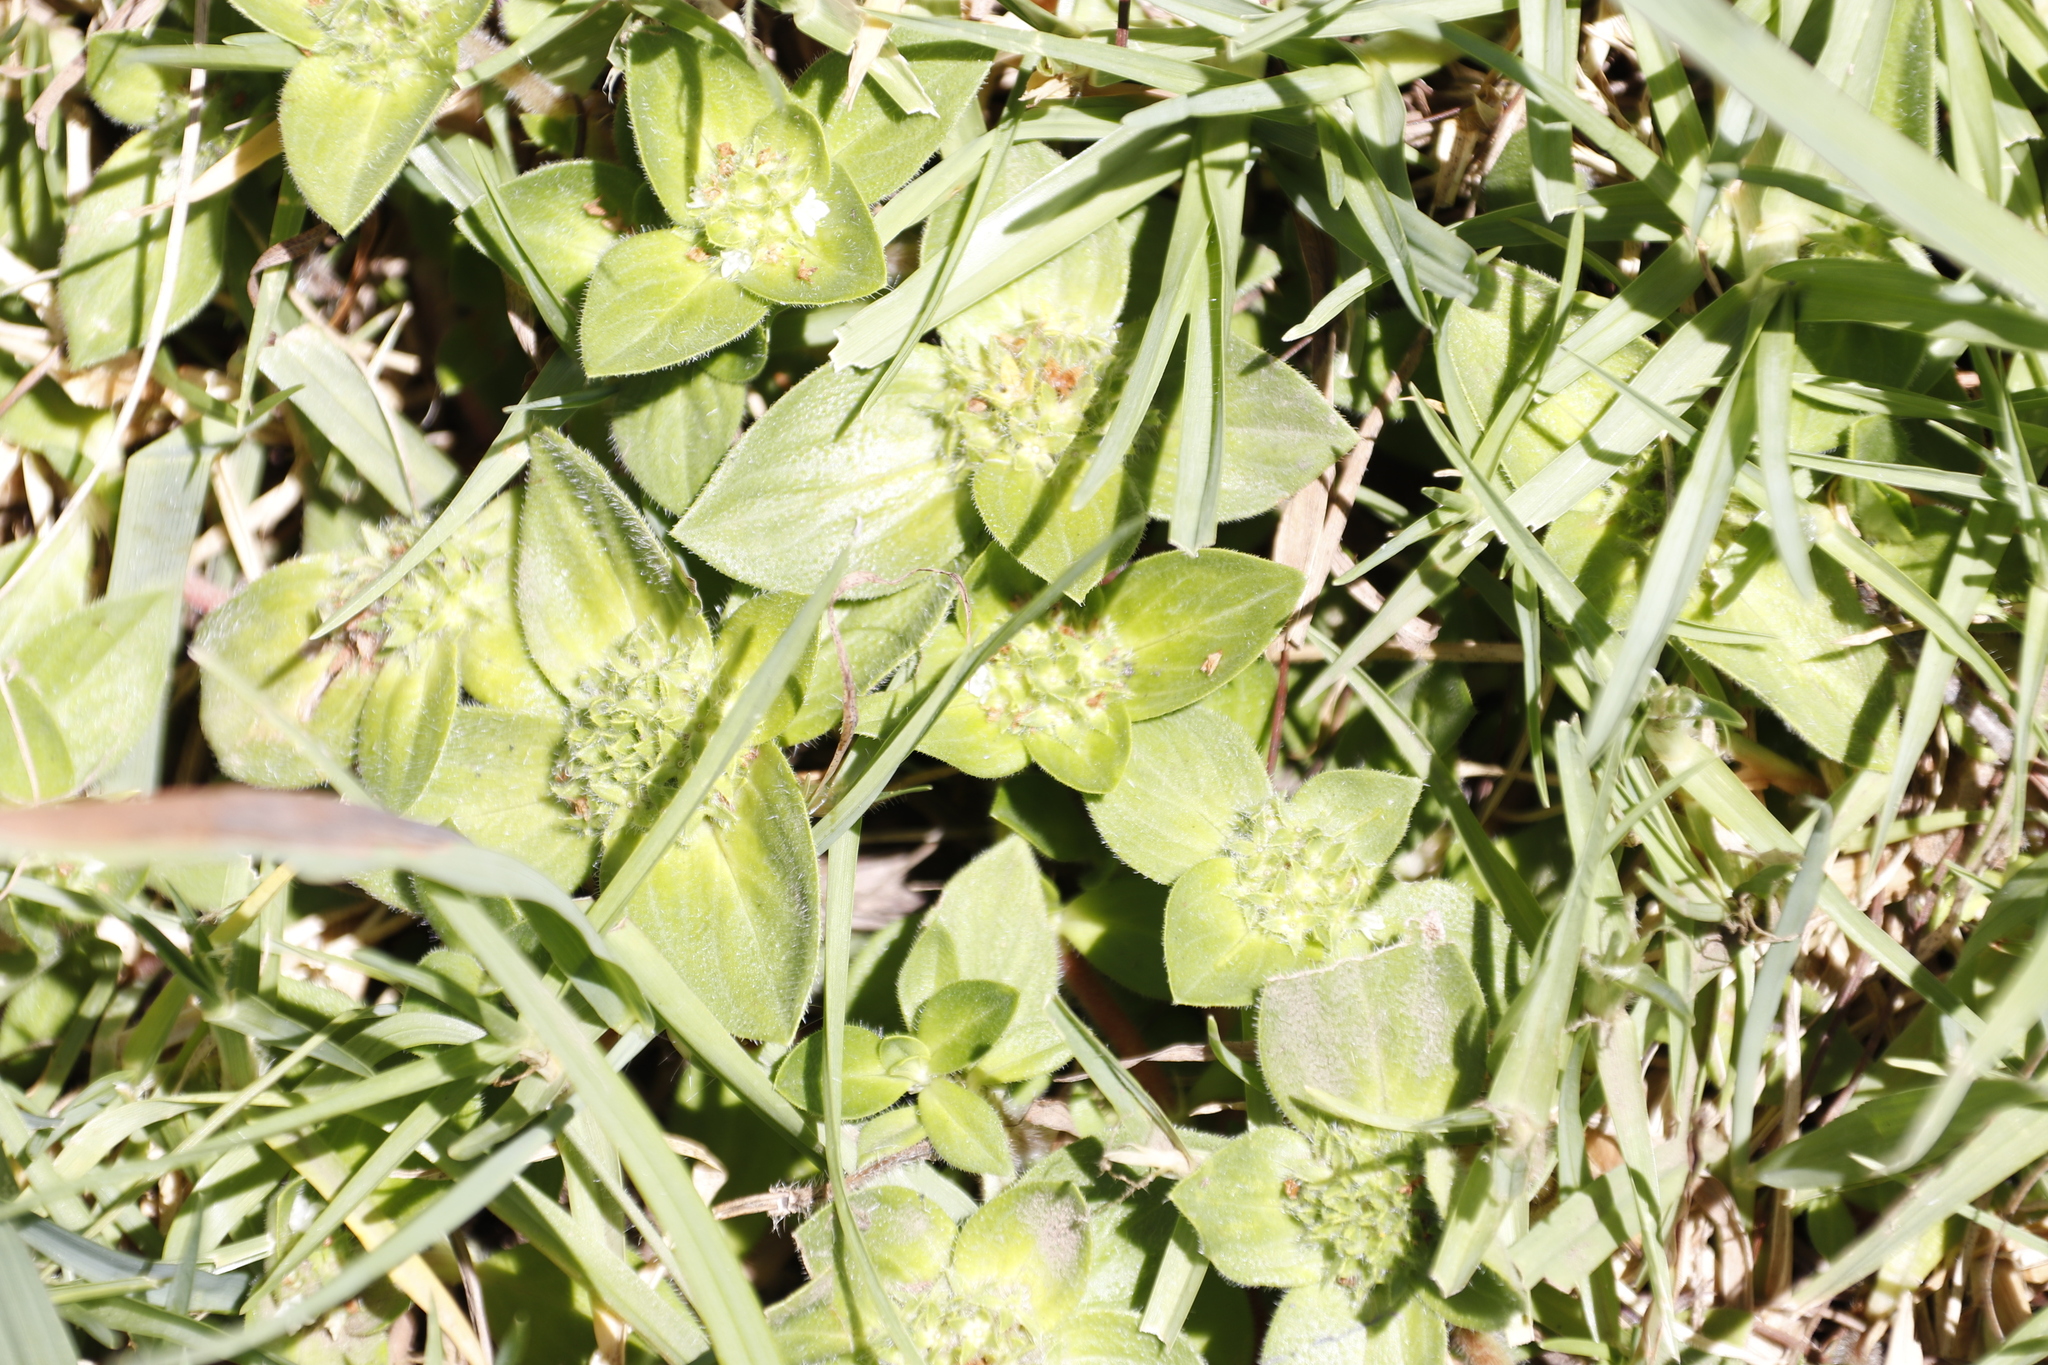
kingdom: Plantae
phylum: Tracheophyta
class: Magnoliopsida
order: Gentianales
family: Rubiaceae
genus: Richardia
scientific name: Richardia brasiliensis
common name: Tropical mexican clover
